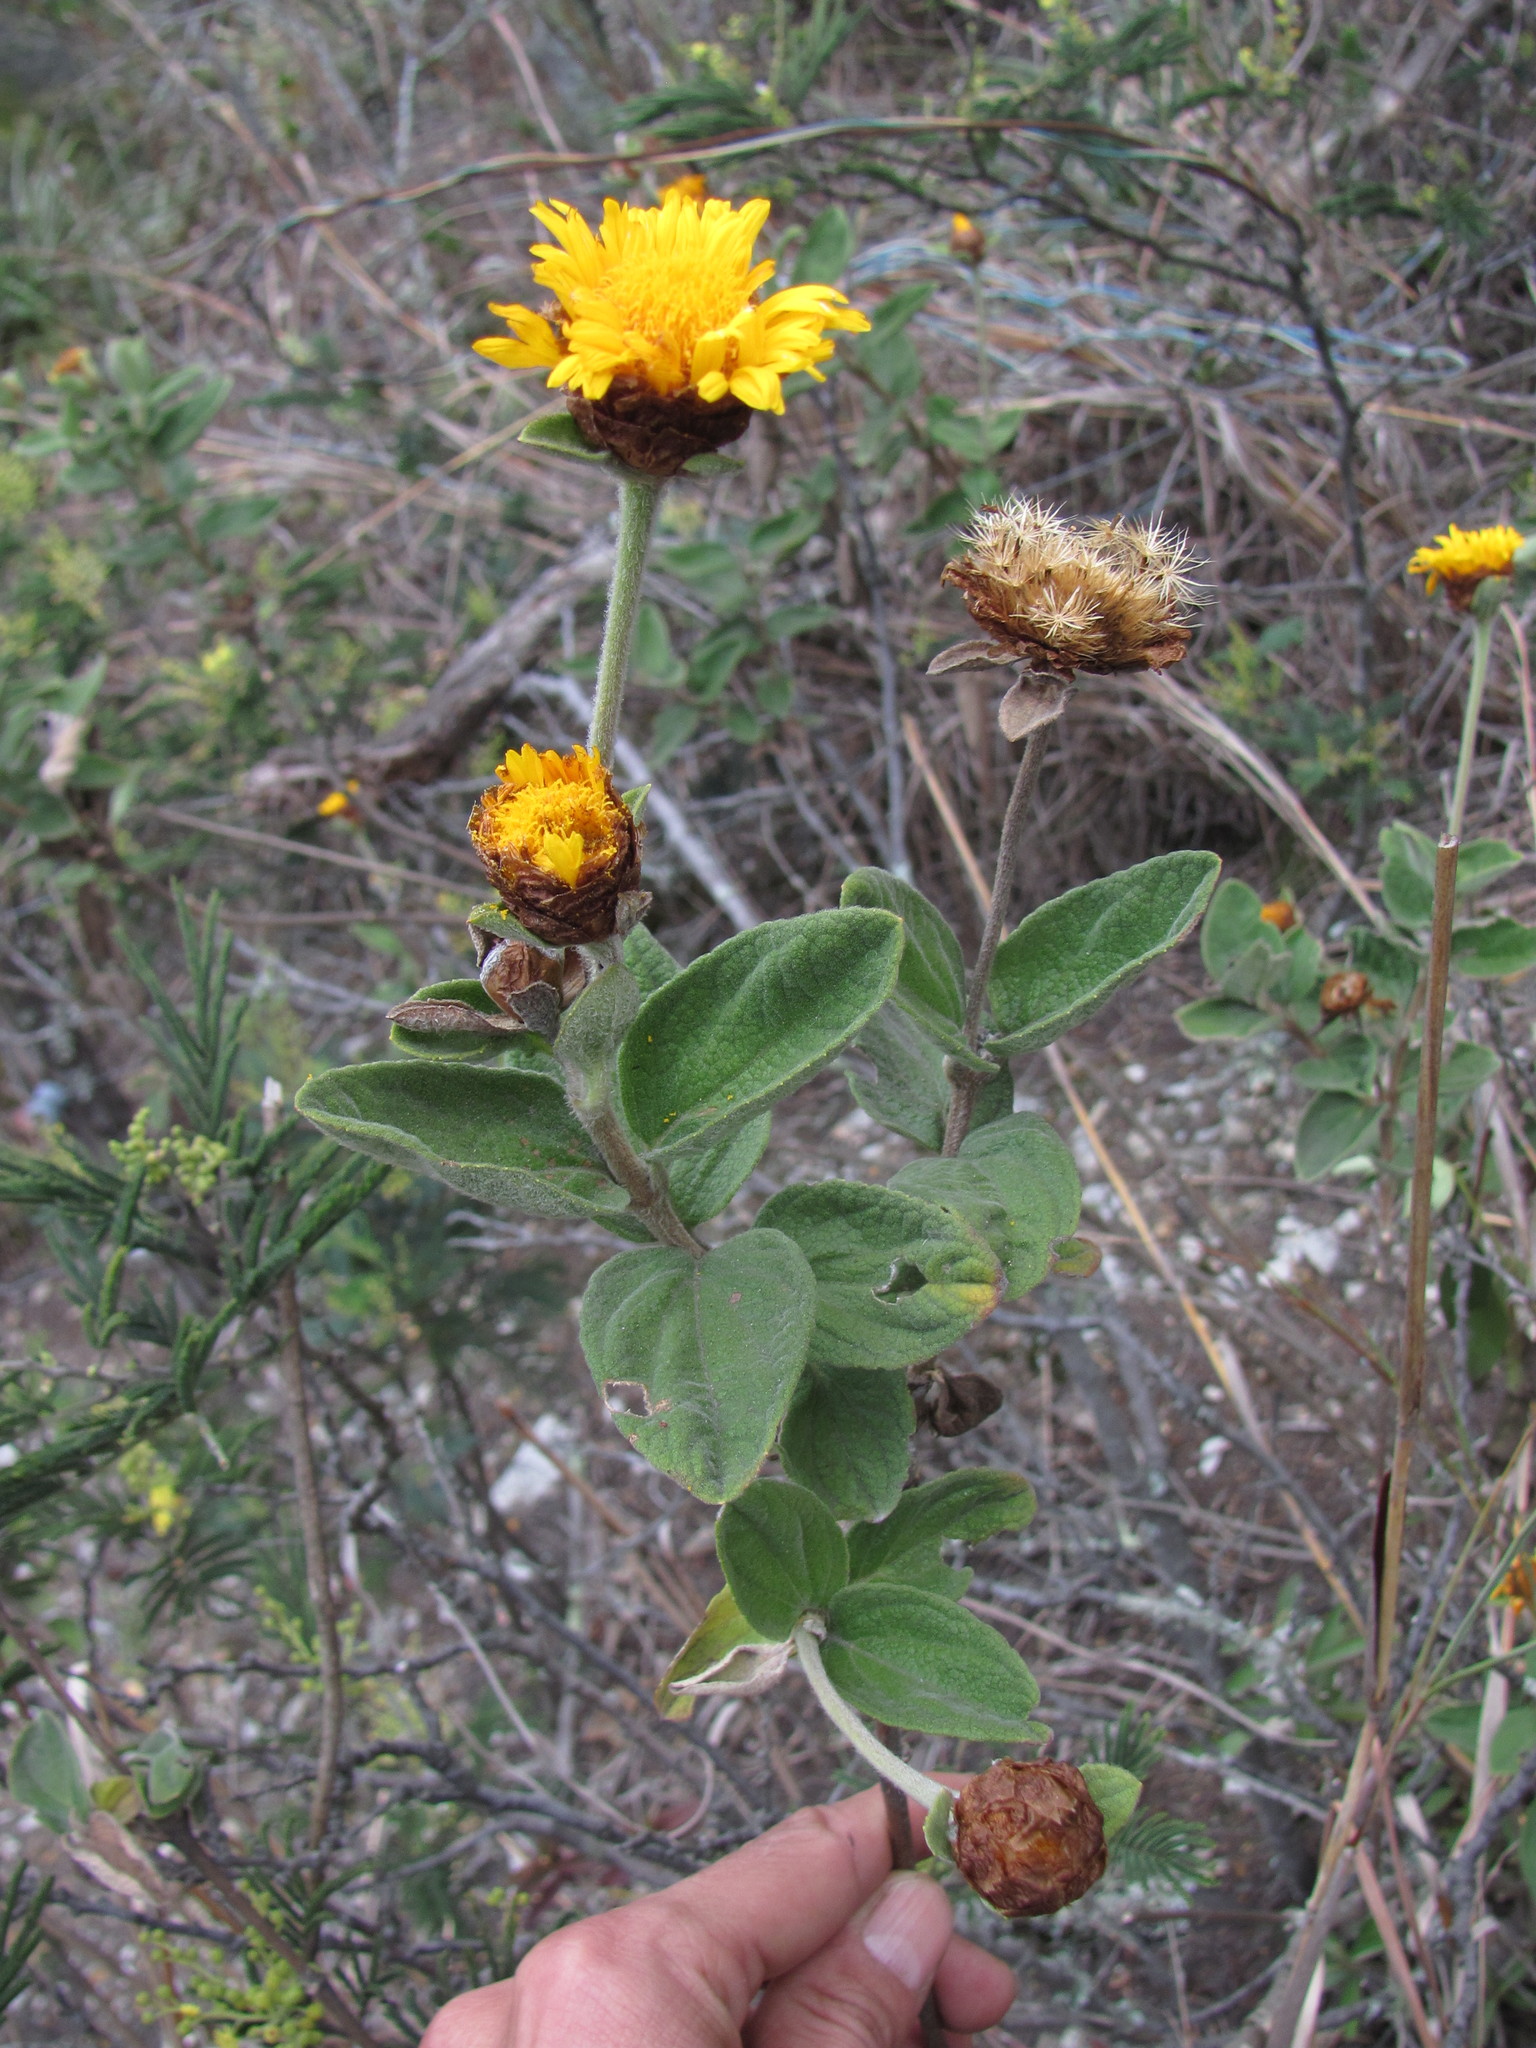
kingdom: Plantae
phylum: Tracheophyta
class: Magnoliopsida
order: Asterales
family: Asteraceae
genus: Calea
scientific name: Calea peruviana
